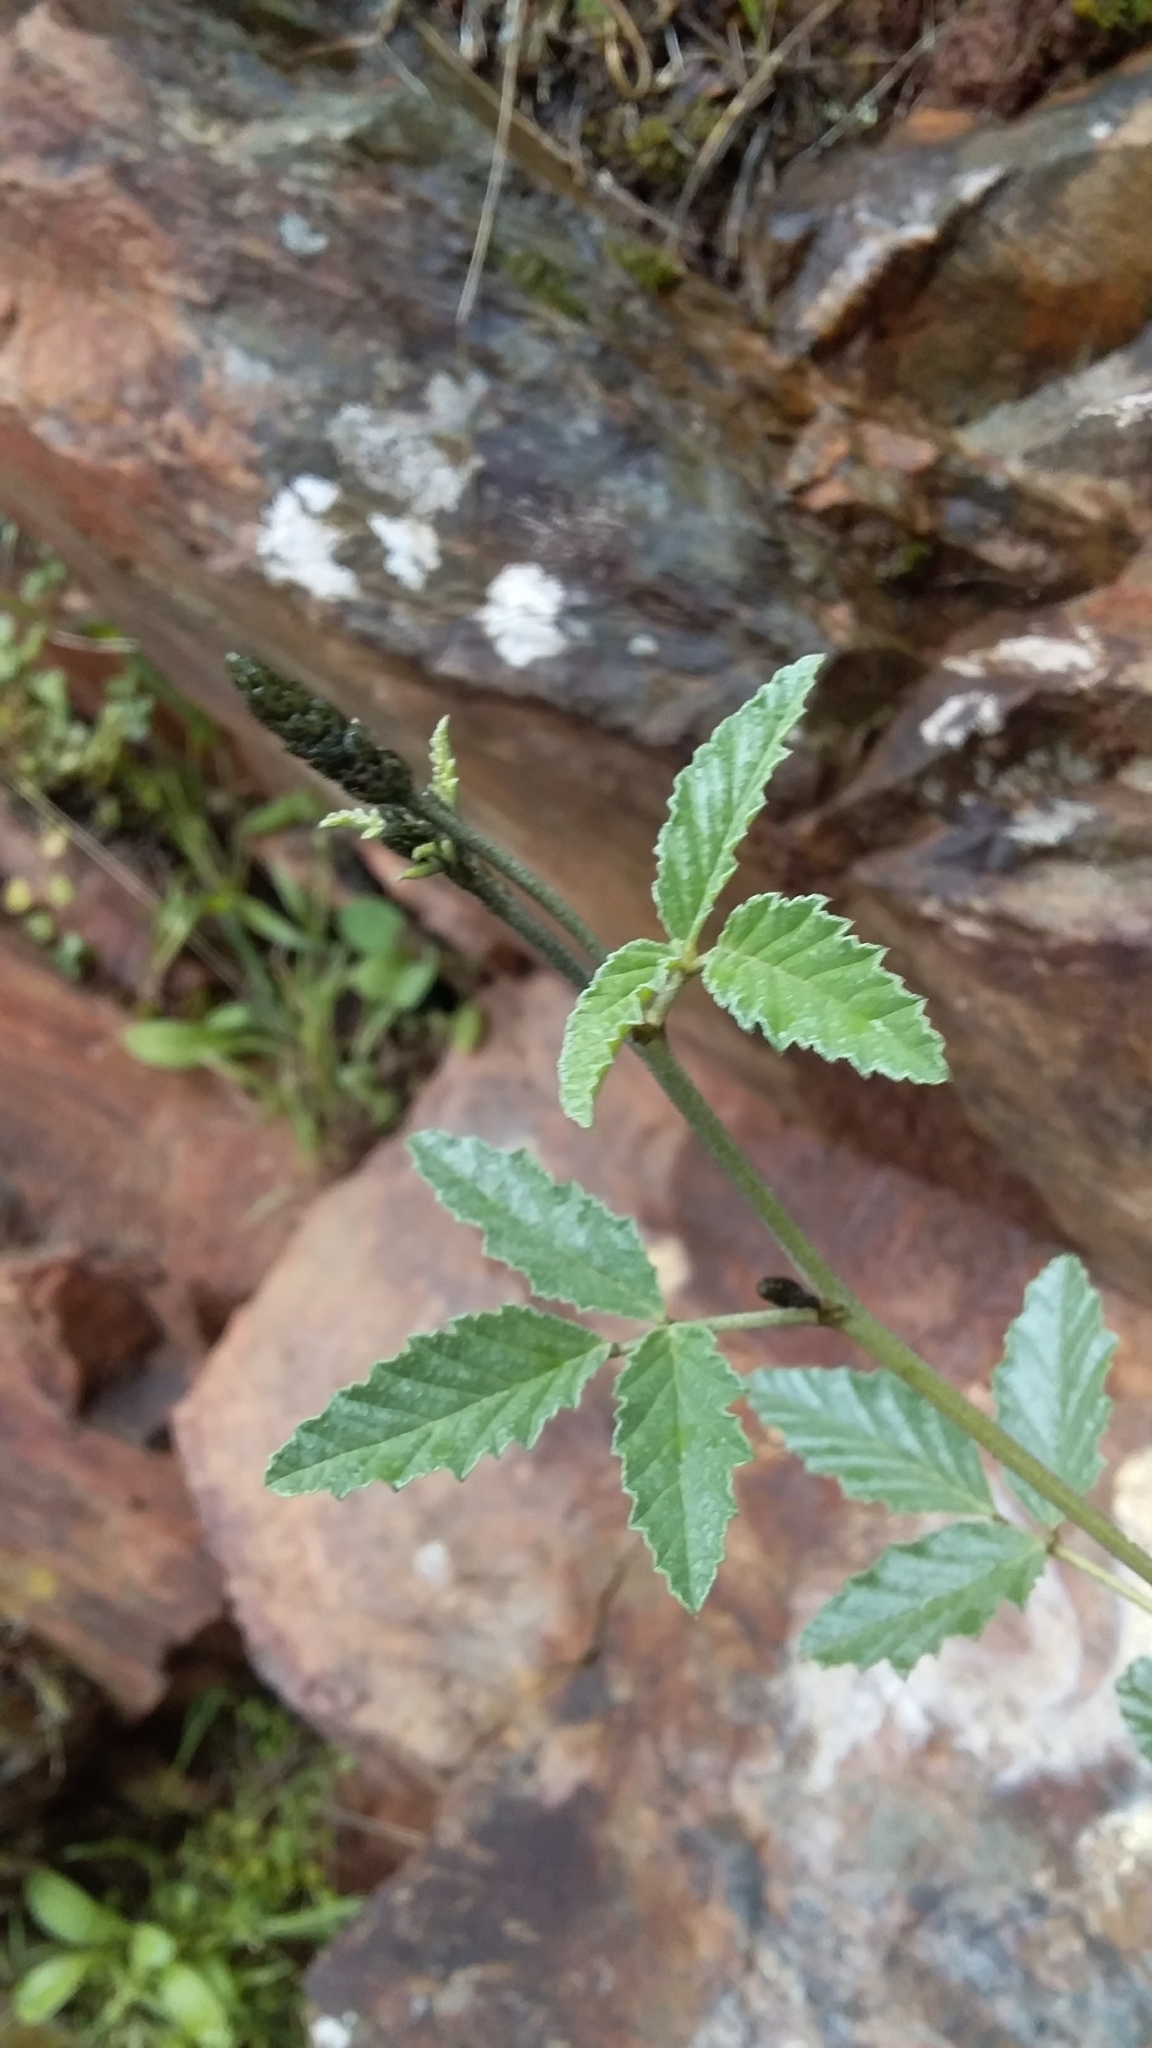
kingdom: Plantae
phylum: Tracheophyta
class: Magnoliopsida
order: Fabales
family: Fabaceae
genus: Cullen
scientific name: Cullen australasicum
